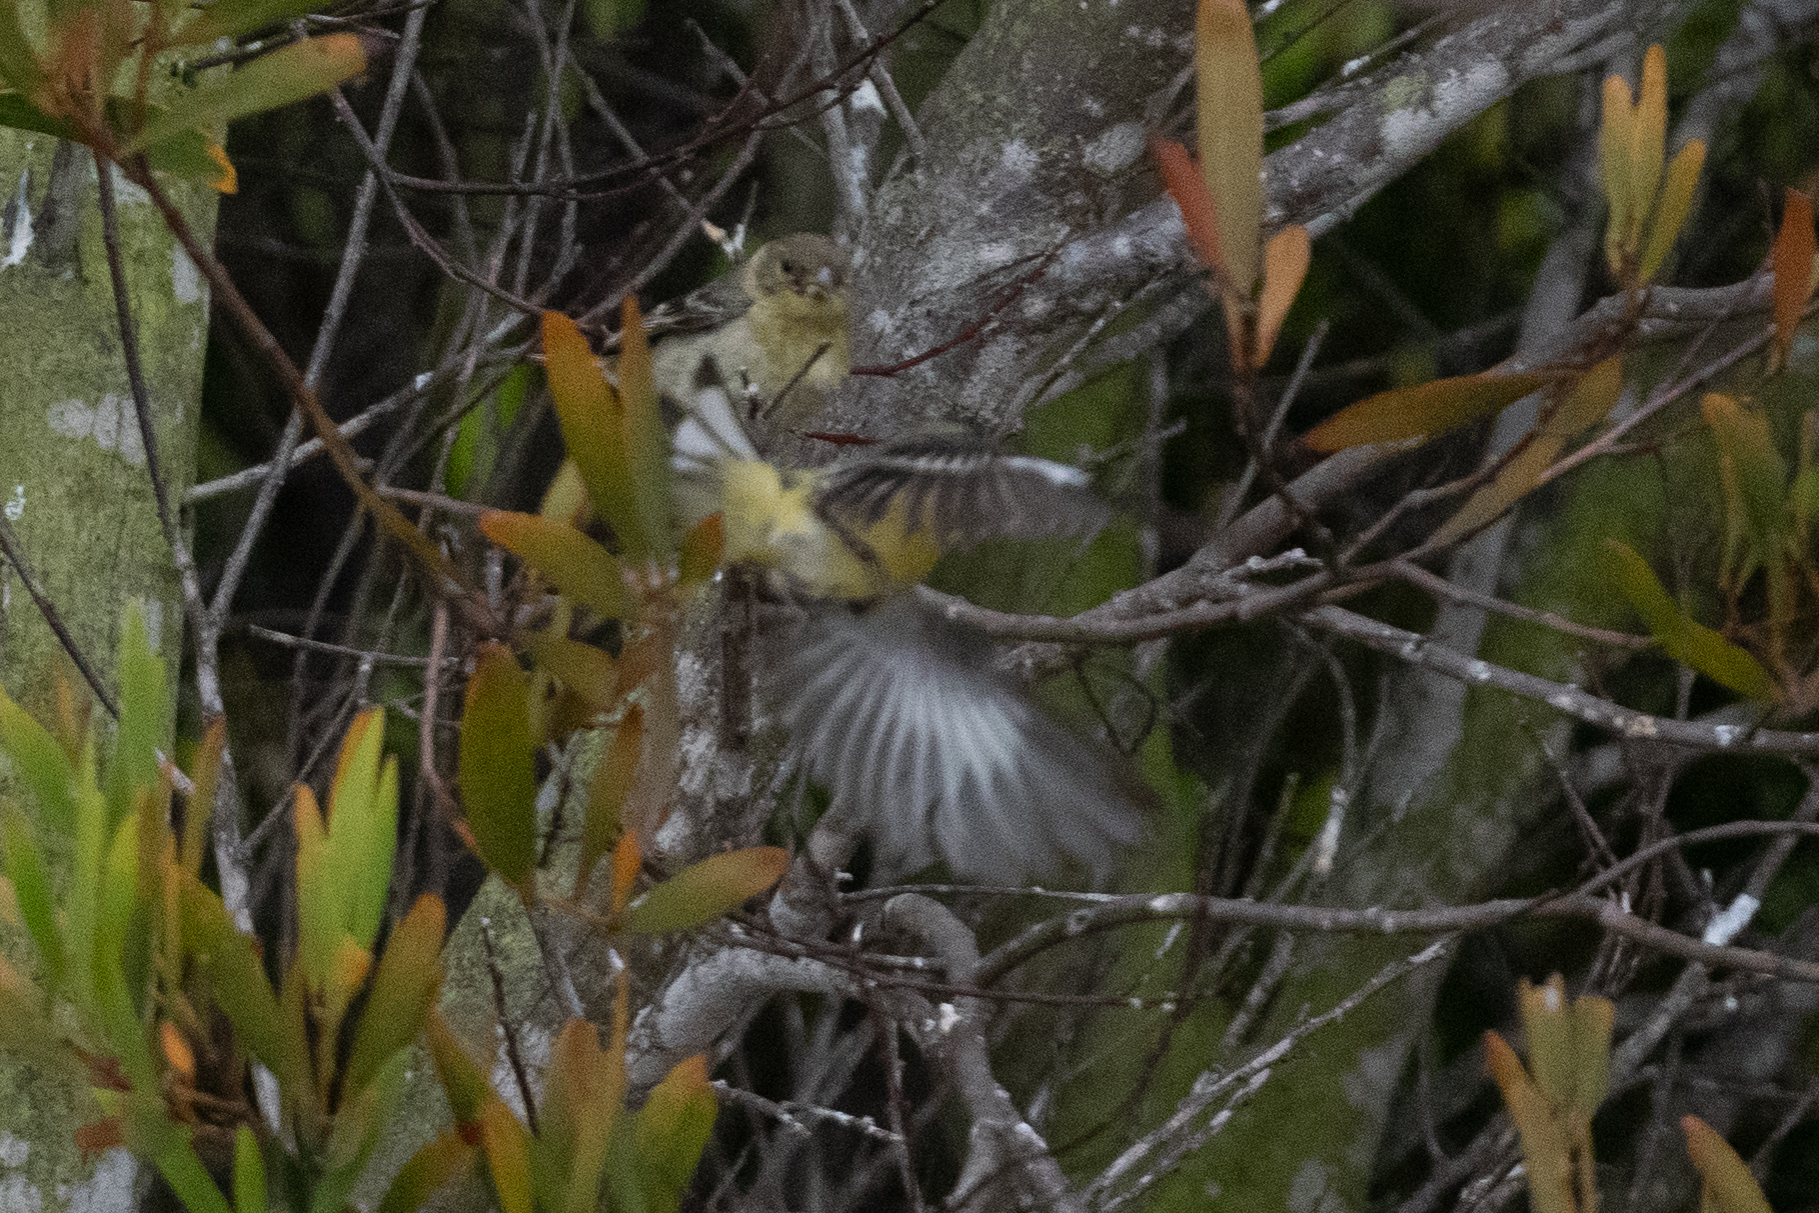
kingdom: Animalia
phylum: Chordata
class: Aves
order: Passeriformes
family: Fringillidae
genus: Spinus
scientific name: Spinus psaltria
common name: Lesser goldfinch
